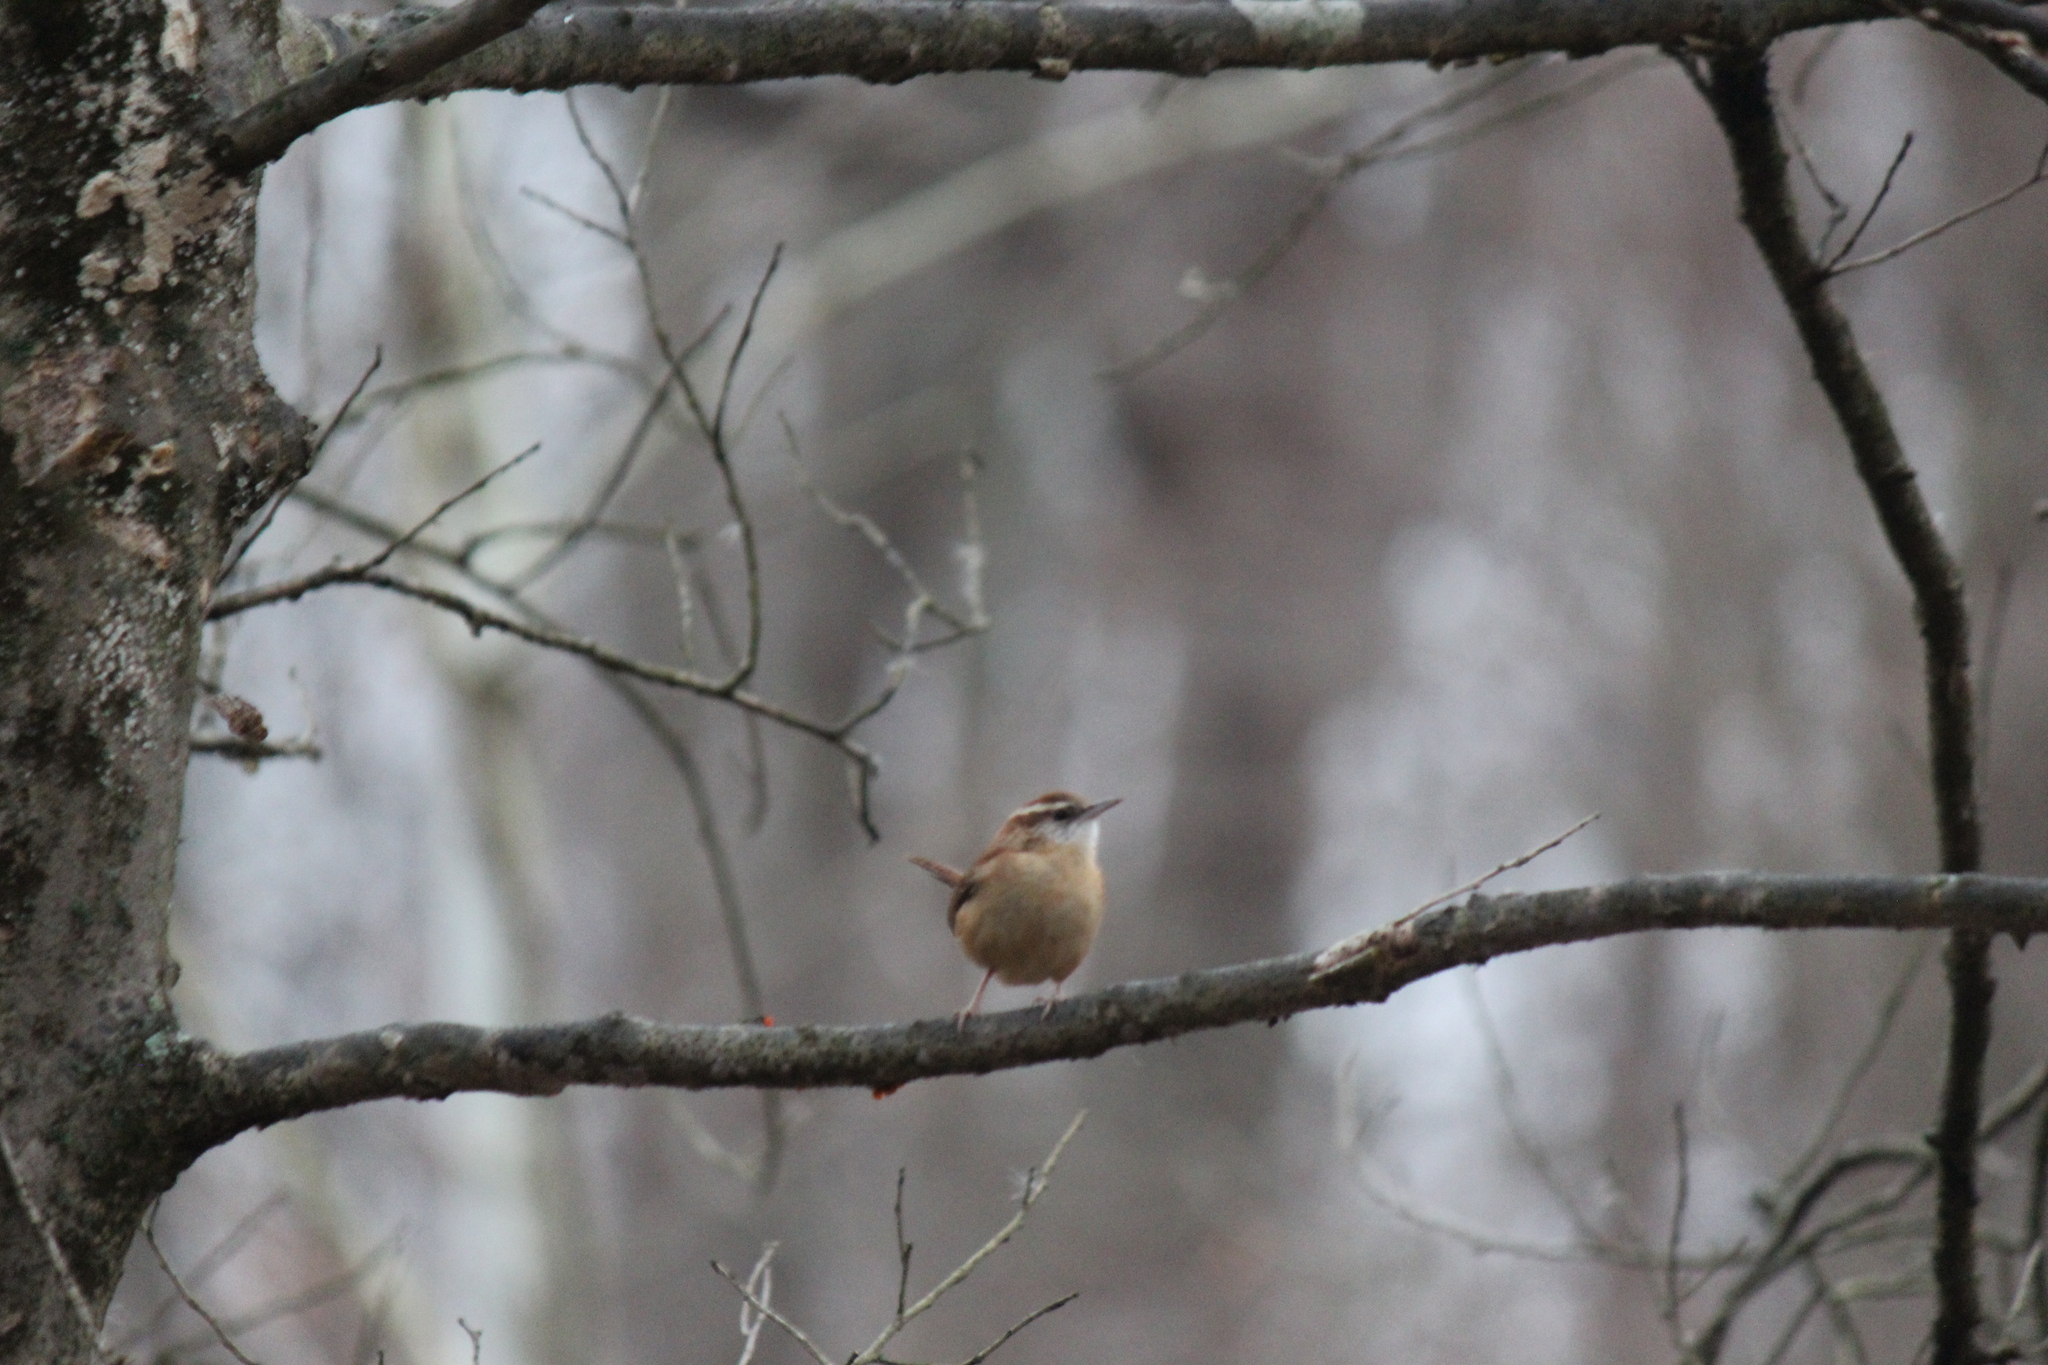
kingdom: Animalia
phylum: Chordata
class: Aves
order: Passeriformes
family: Troglodytidae
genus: Thryothorus
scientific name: Thryothorus ludovicianus
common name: Carolina wren
